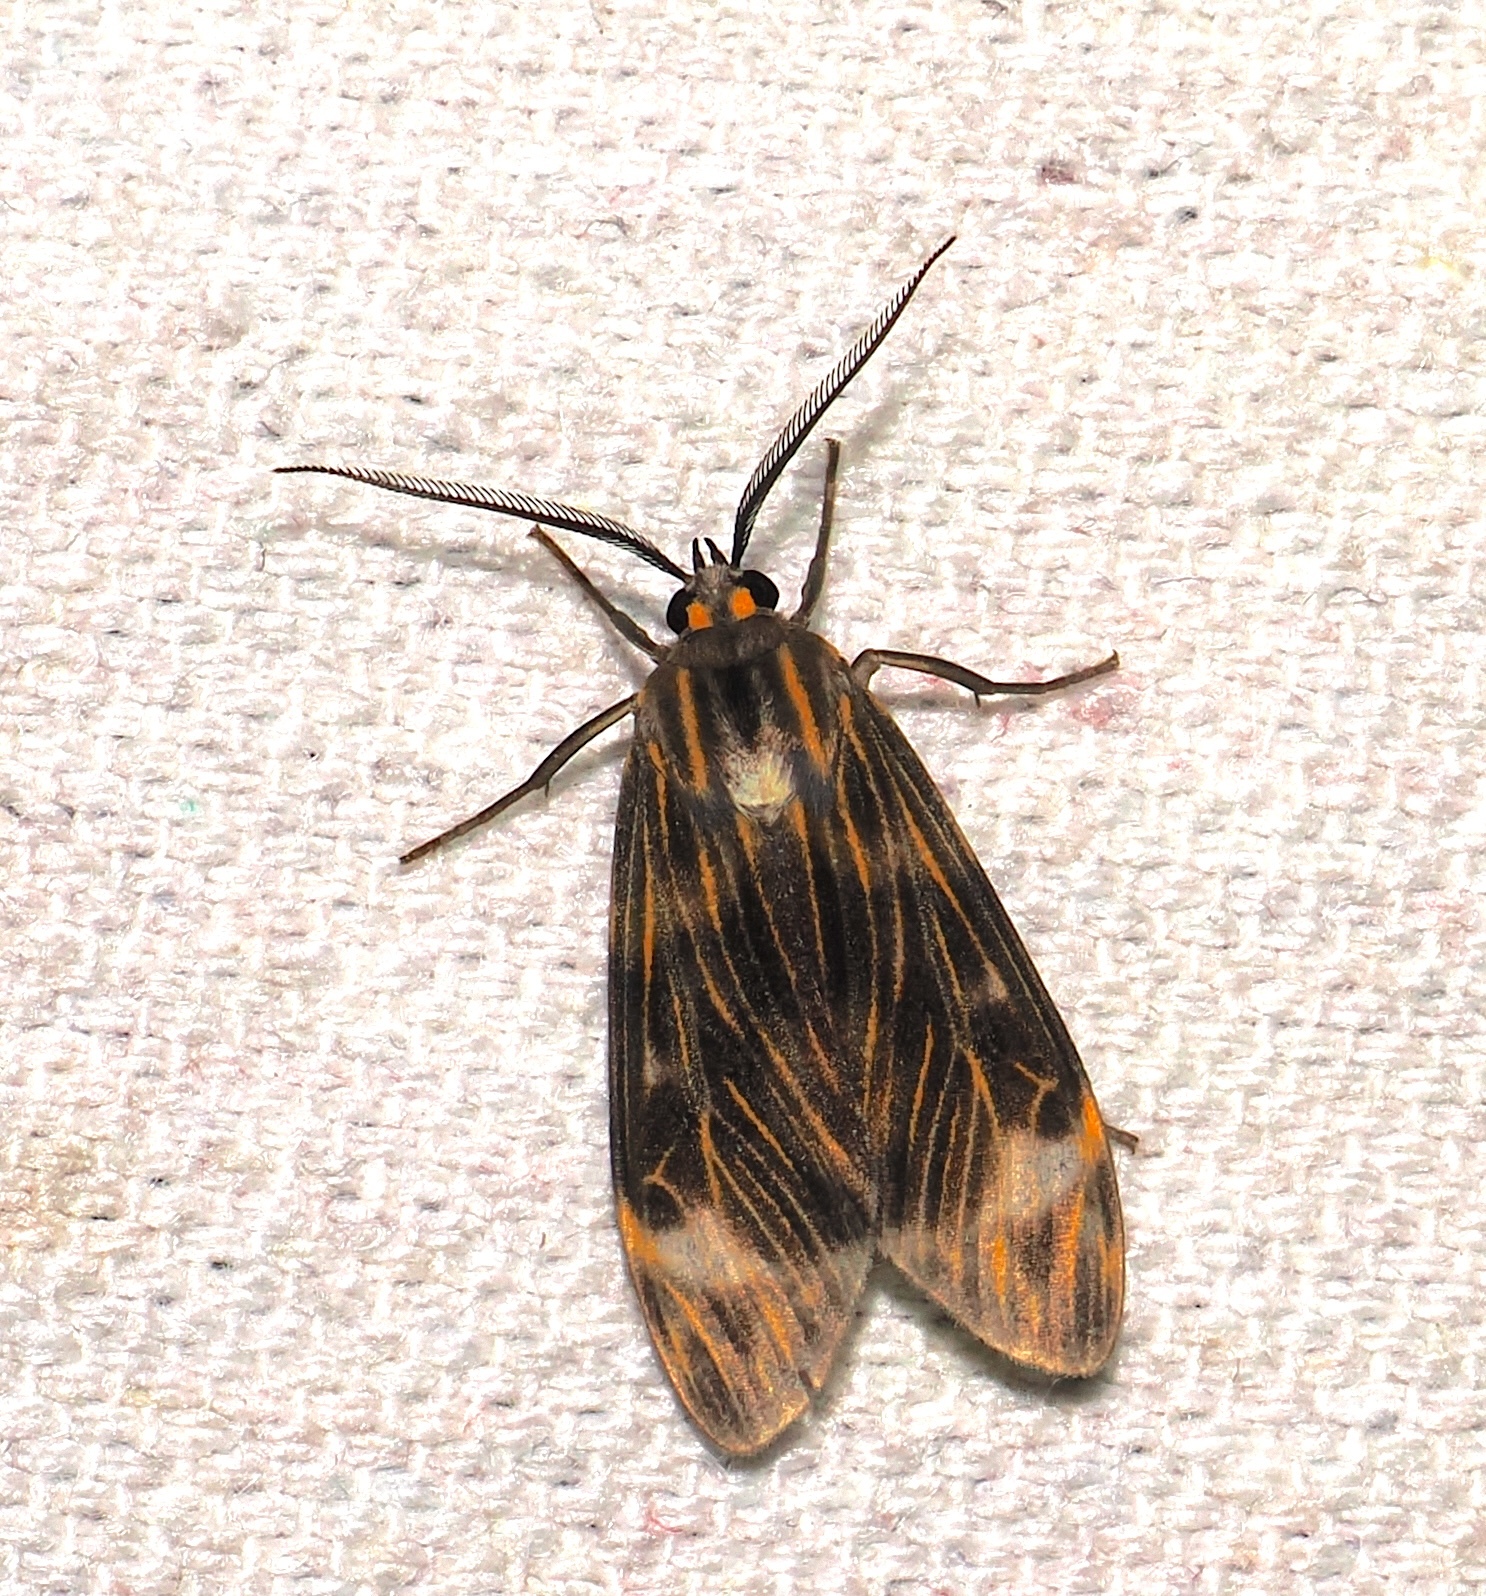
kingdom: Animalia
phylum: Arthropoda
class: Insecta
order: Lepidoptera
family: Erebidae
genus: Eucereon
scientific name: Eucereon casca
